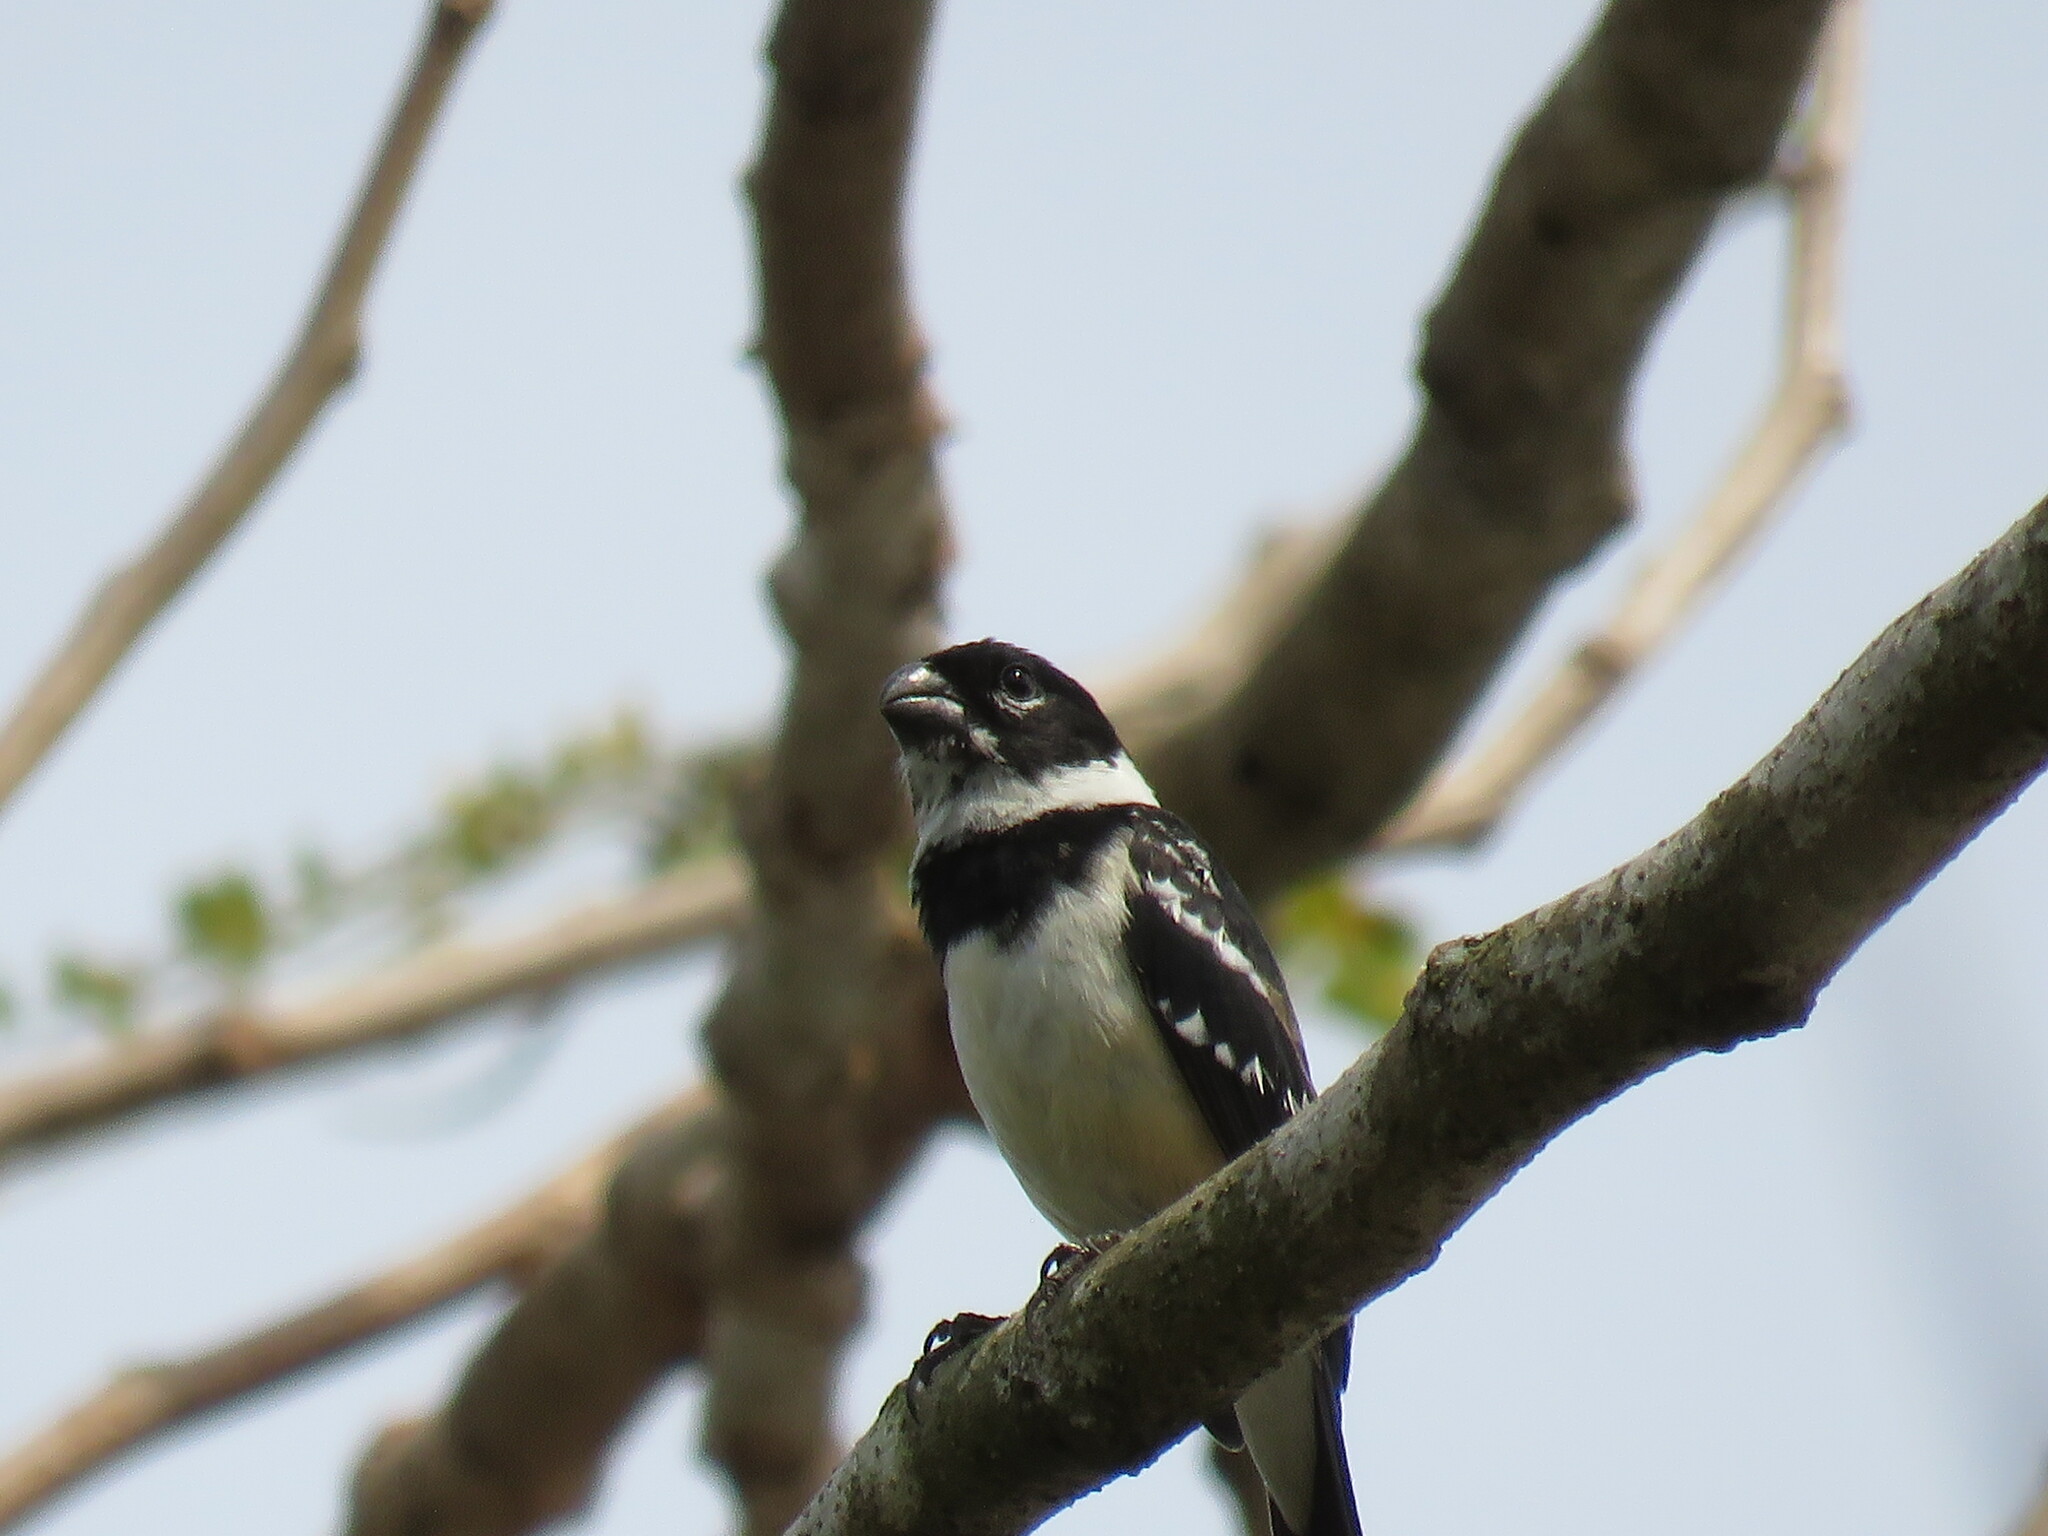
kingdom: Animalia
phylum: Chordata
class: Aves
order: Passeriformes
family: Thraupidae
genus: Sporophila
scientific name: Sporophila morelleti
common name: Morelet's seedeater
